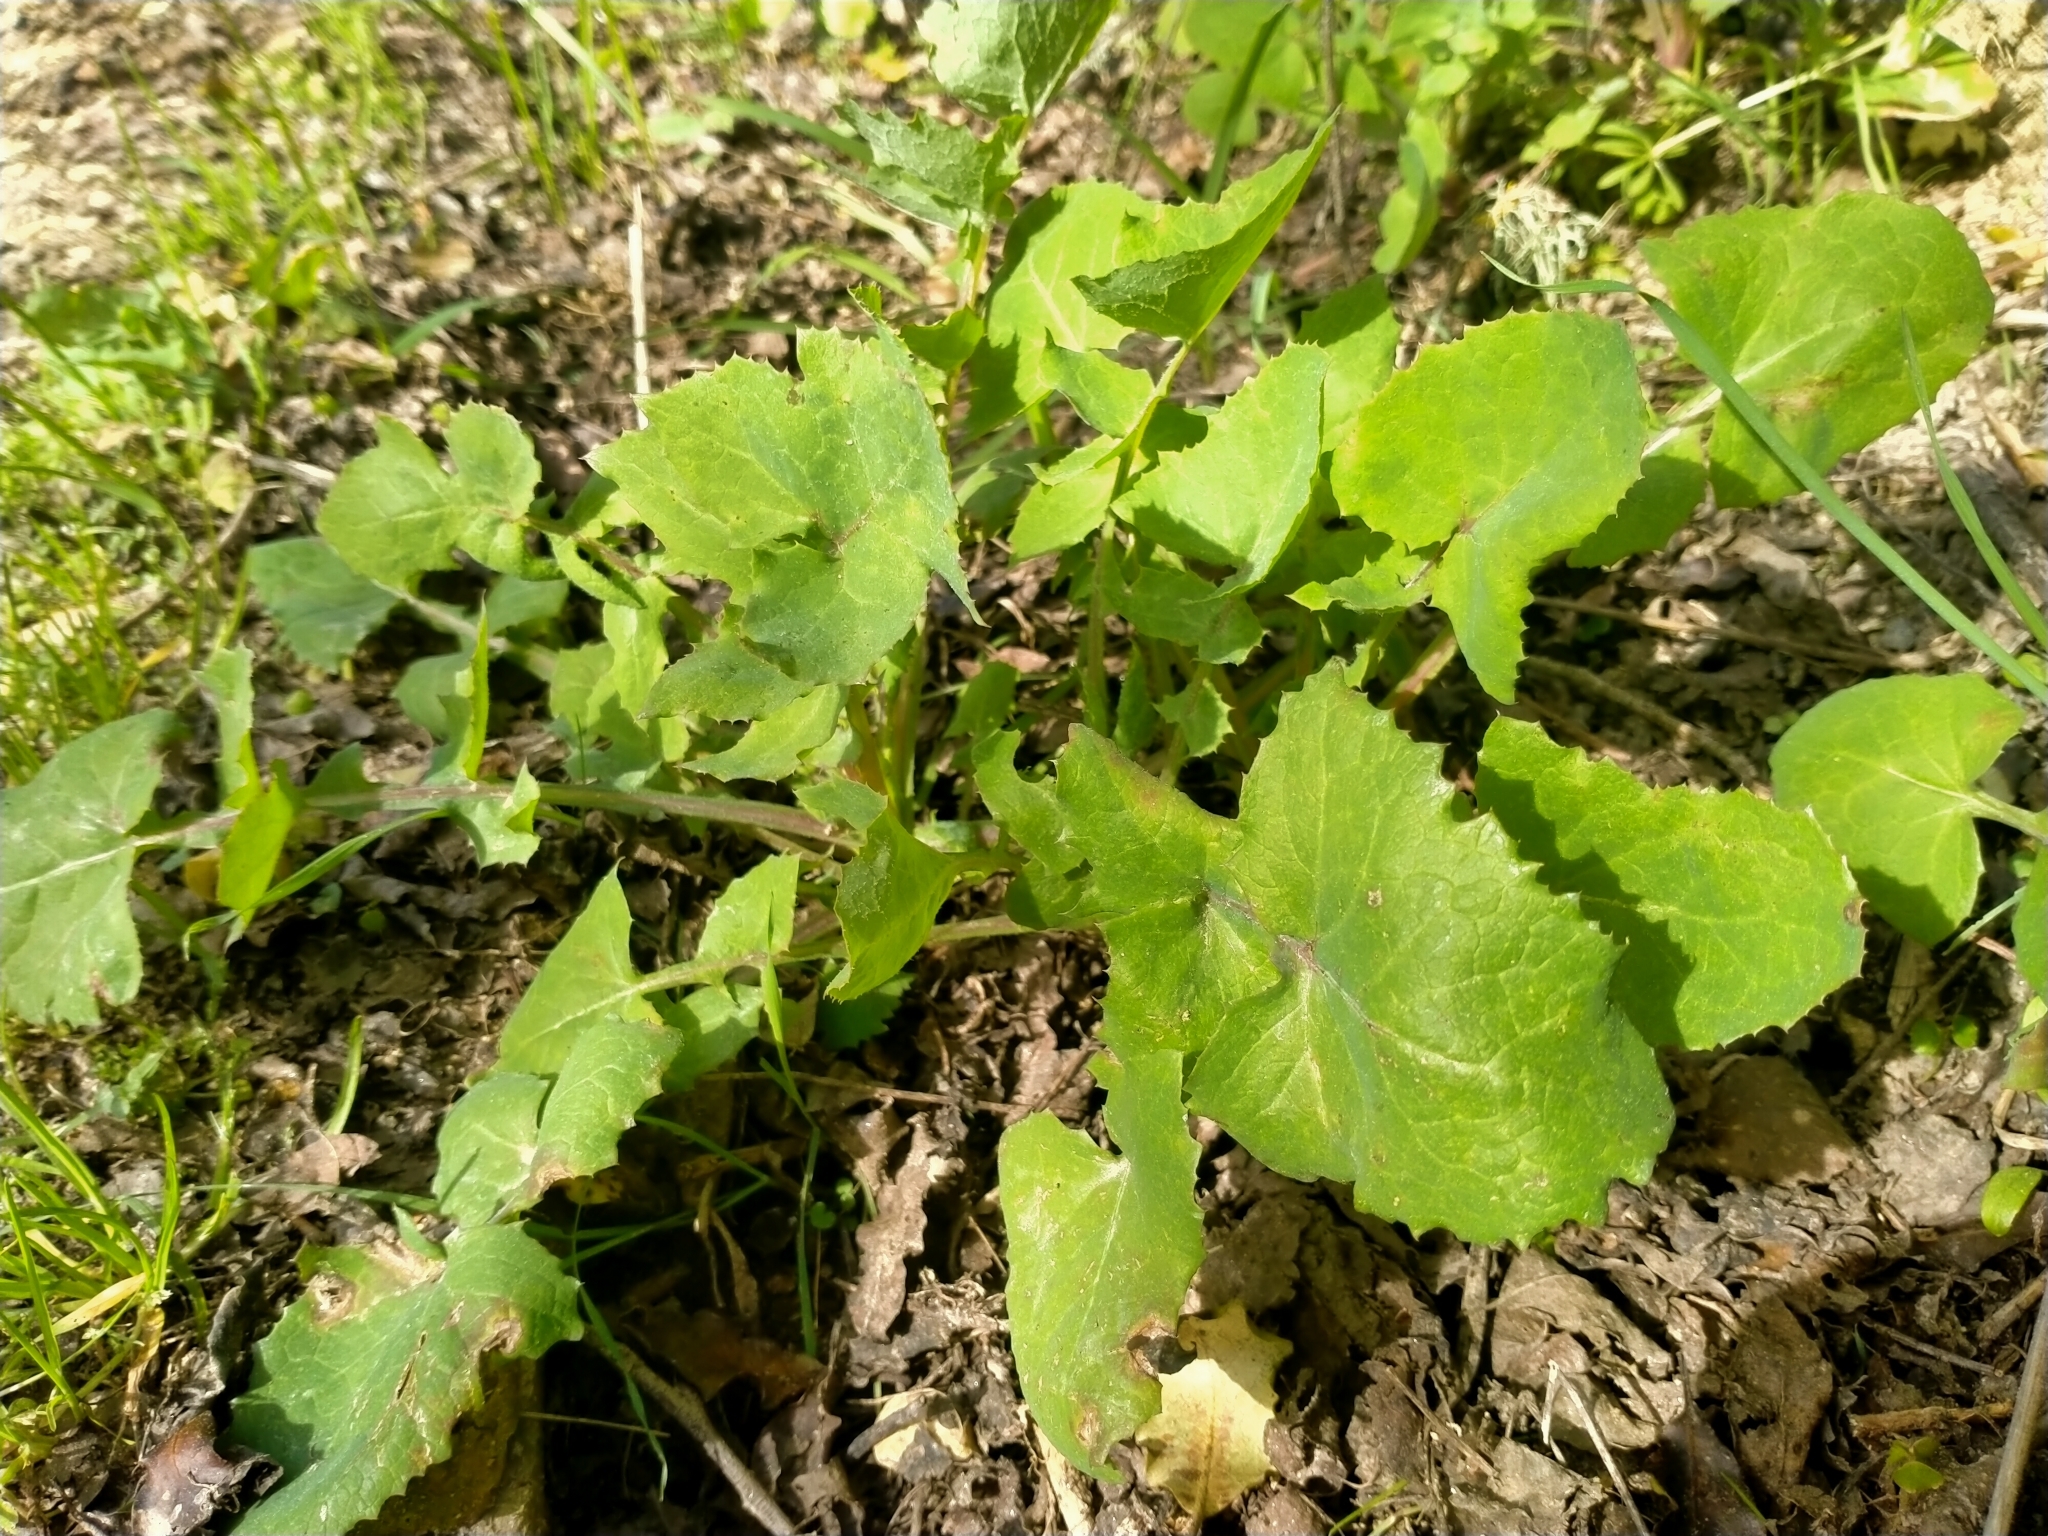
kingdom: Plantae
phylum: Tracheophyta
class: Magnoliopsida
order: Asterales
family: Asteraceae
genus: Sonchus
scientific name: Sonchus oleraceus
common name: Common sowthistle
